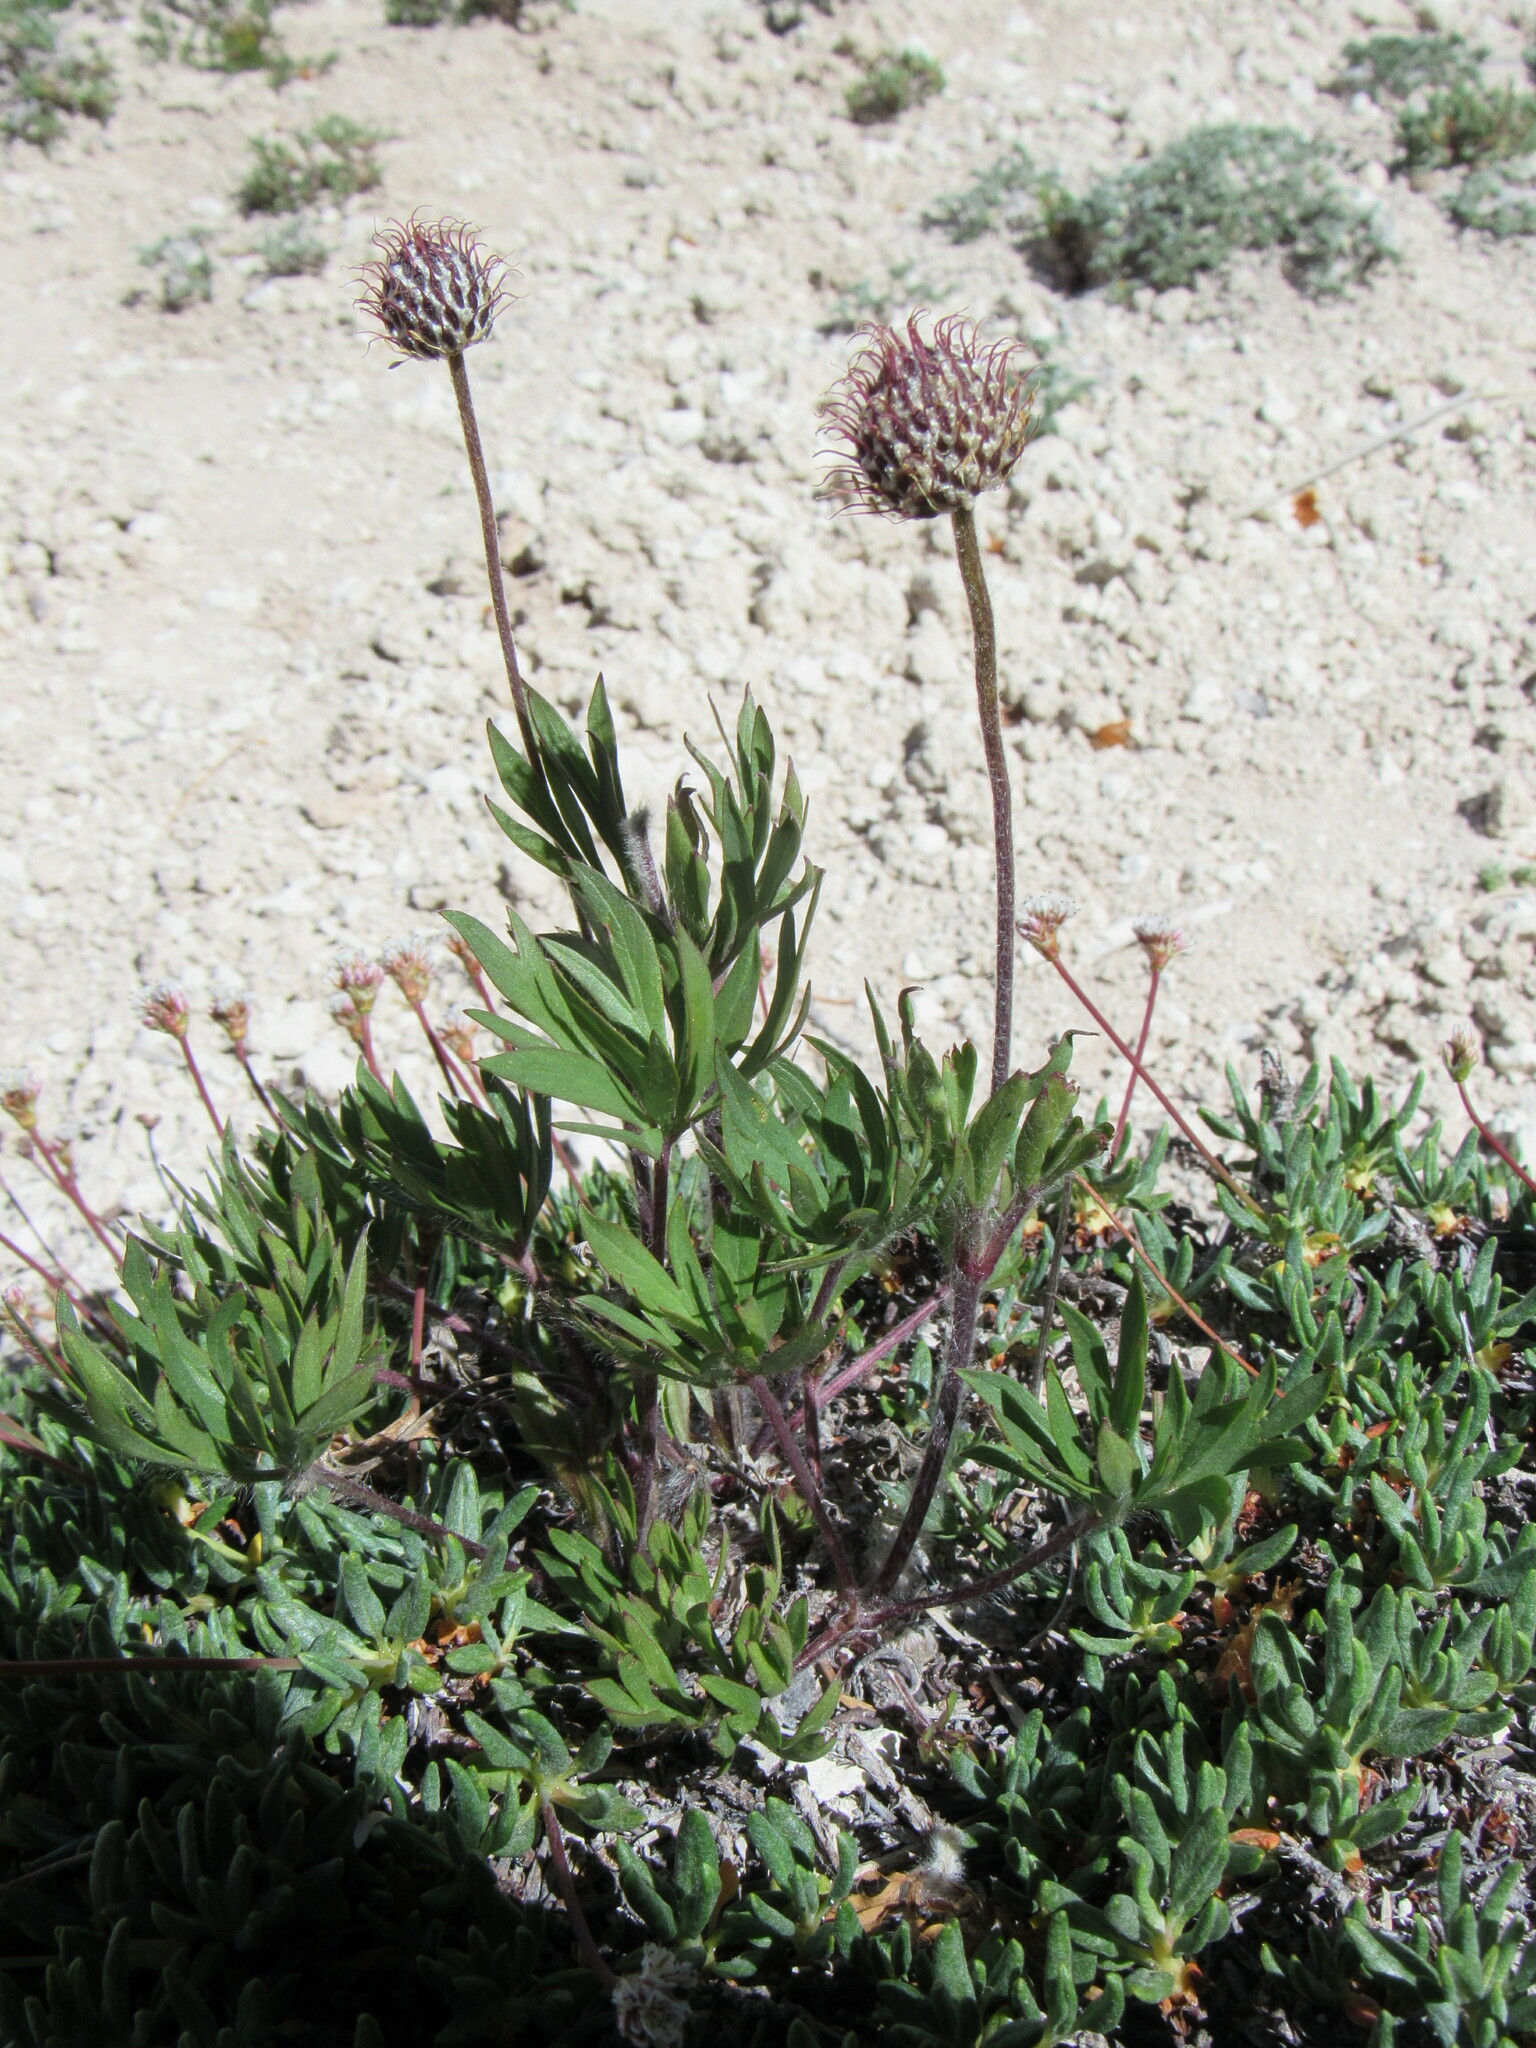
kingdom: Plantae
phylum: Tracheophyta
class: Magnoliopsida
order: Ranunculales
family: Ranunculaceae
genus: Anemone
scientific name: Anemone multifida
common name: Bird's-foot anemone
